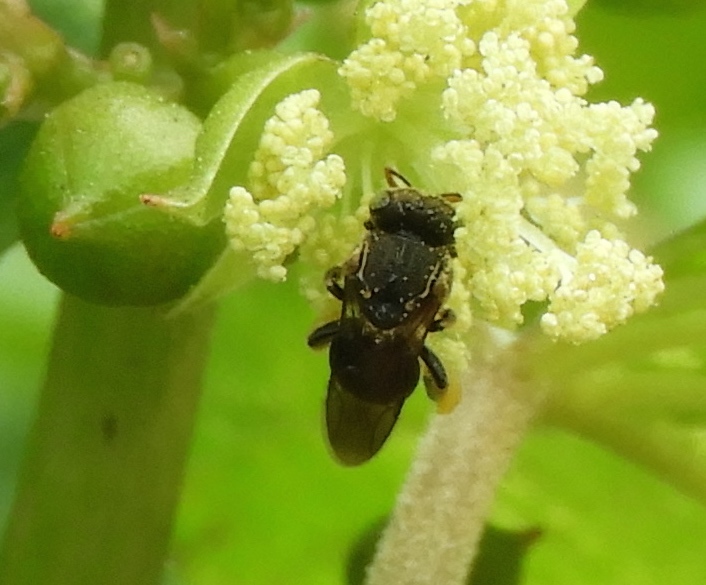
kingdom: Animalia
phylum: Arthropoda
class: Insecta
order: Hymenoptera
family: Apidae
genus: Nannotrigona
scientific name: Nannotrigona perilampoides
